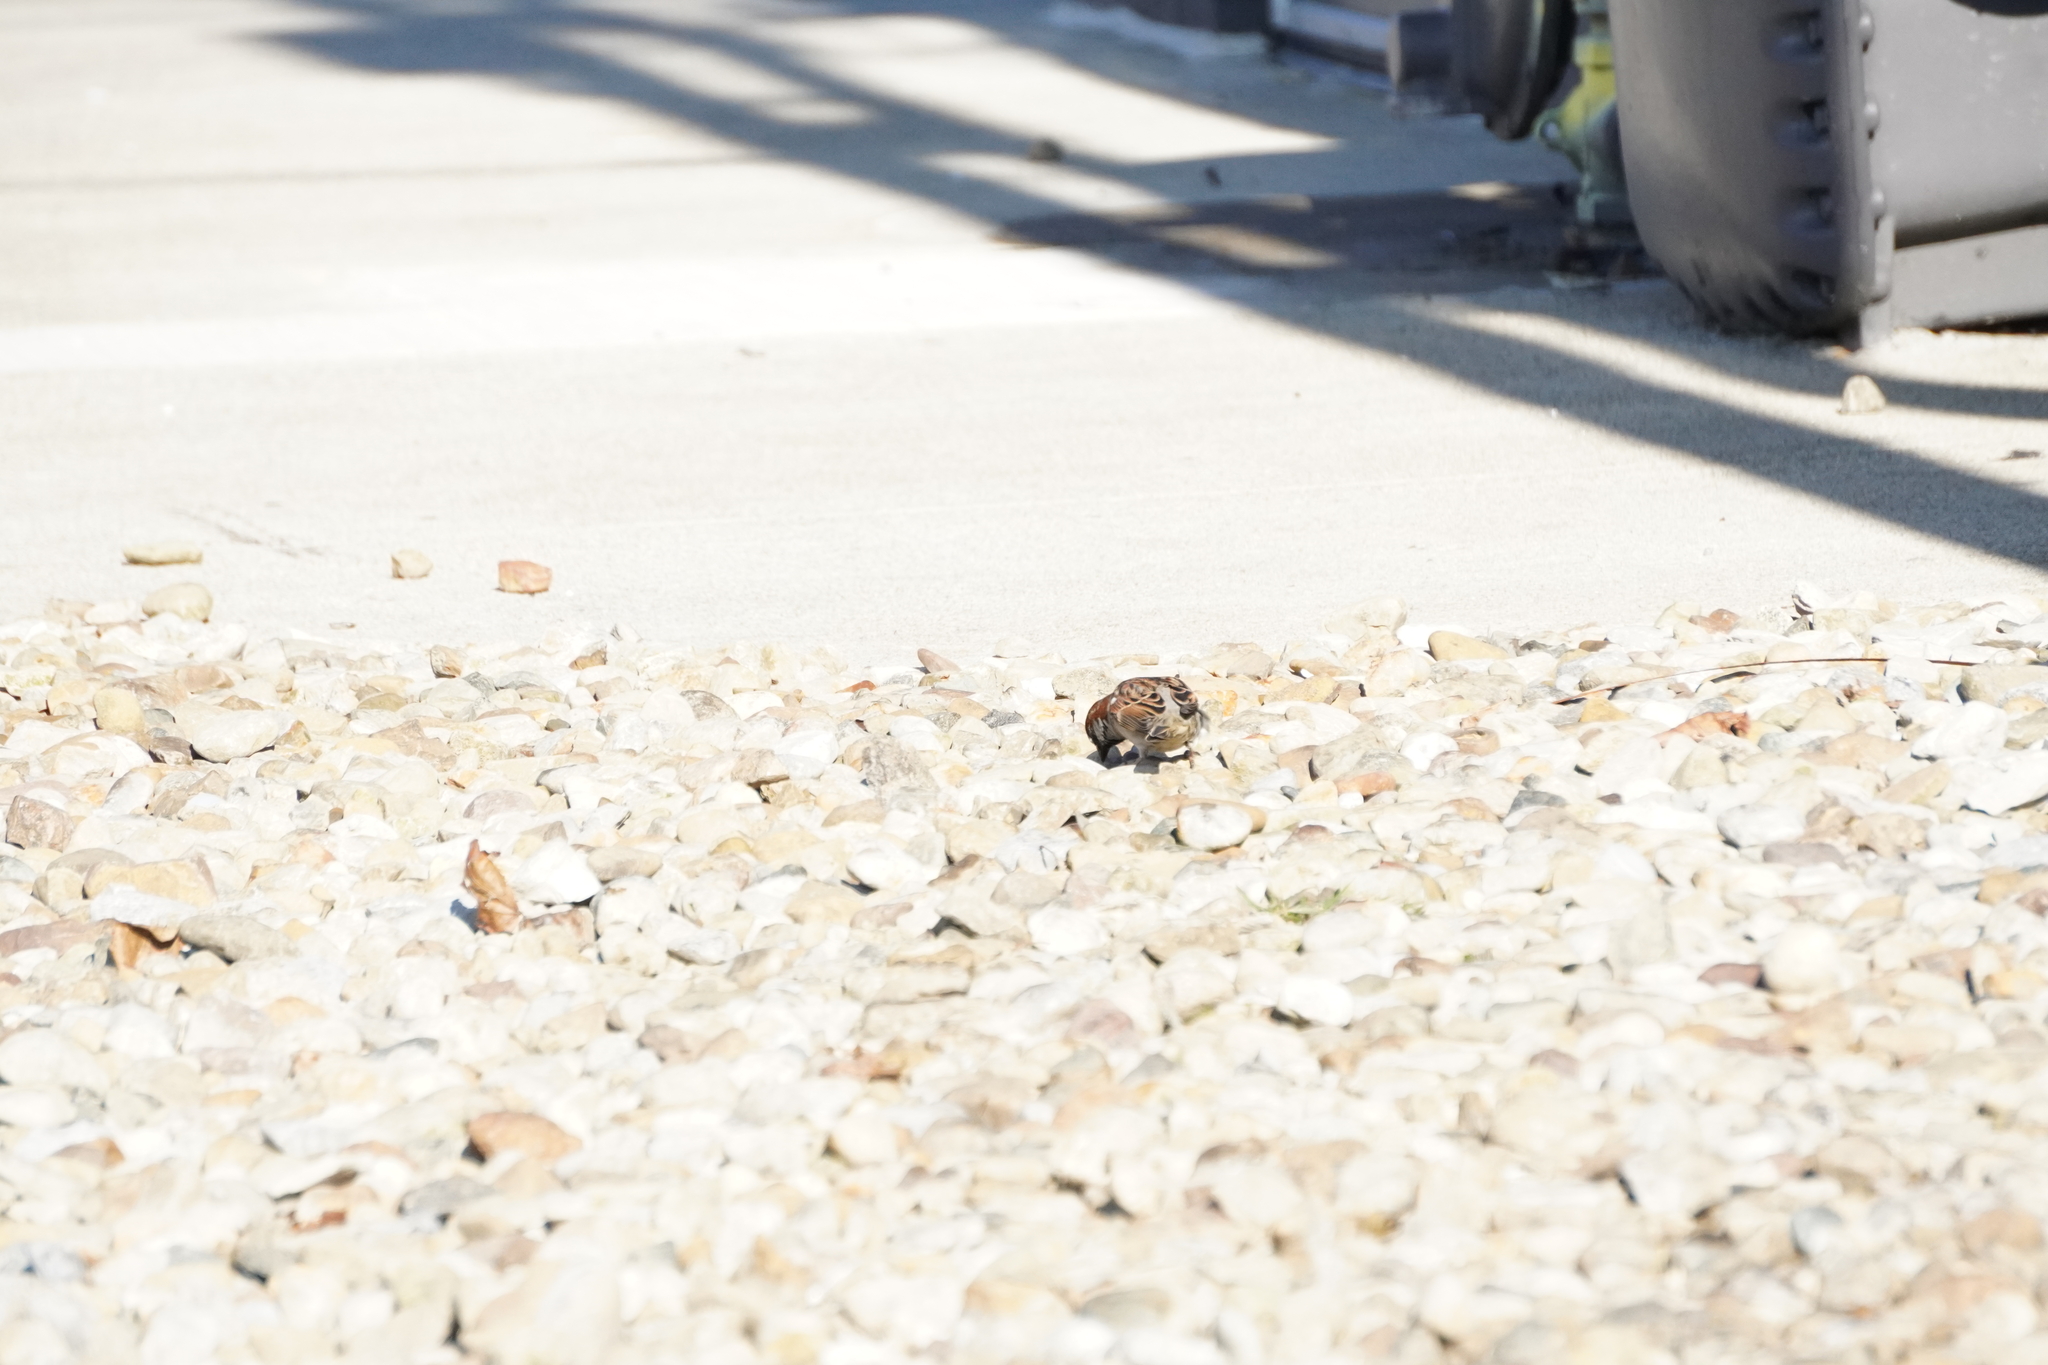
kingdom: Animalia
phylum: Chordata
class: Aves
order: Passeriformes
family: Passeridae
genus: Passer
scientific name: Passer domesticus
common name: House sparrow
